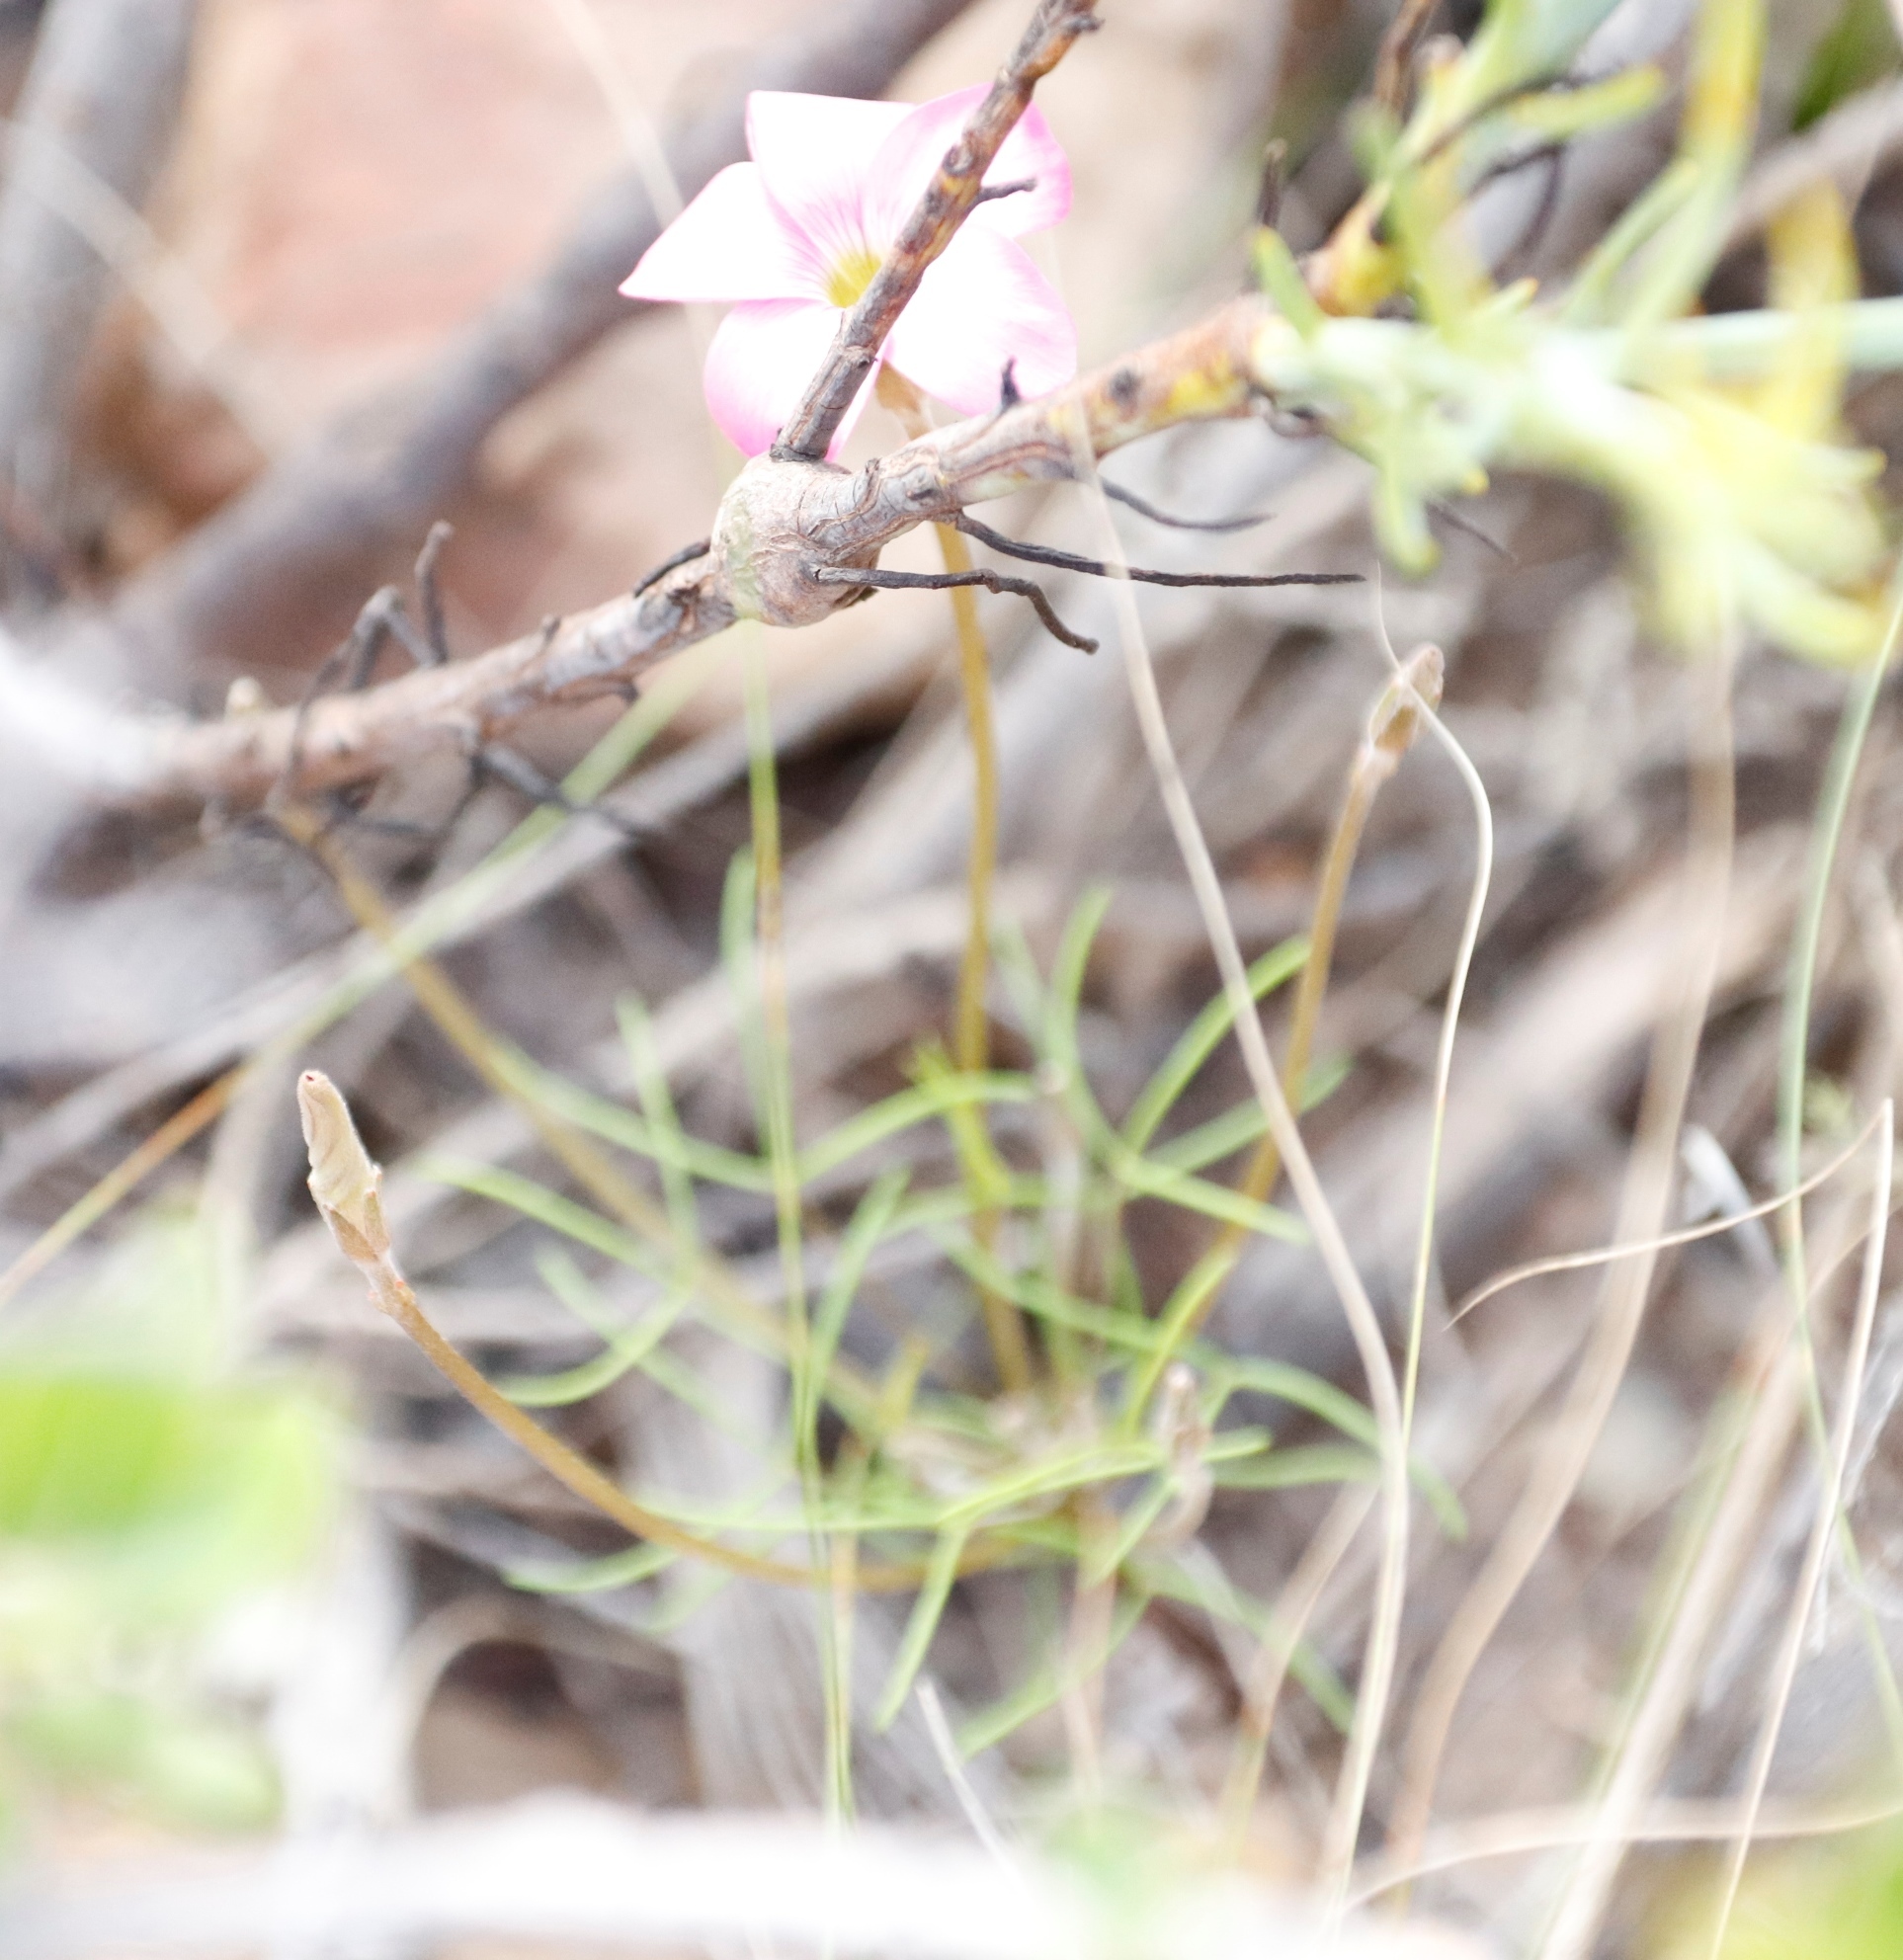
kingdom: Plantae
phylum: Tracheophyta
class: Magnoliopsida
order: Oxalidales
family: Oxalidaceae
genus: Oxalis
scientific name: Oxalis polyphylla
